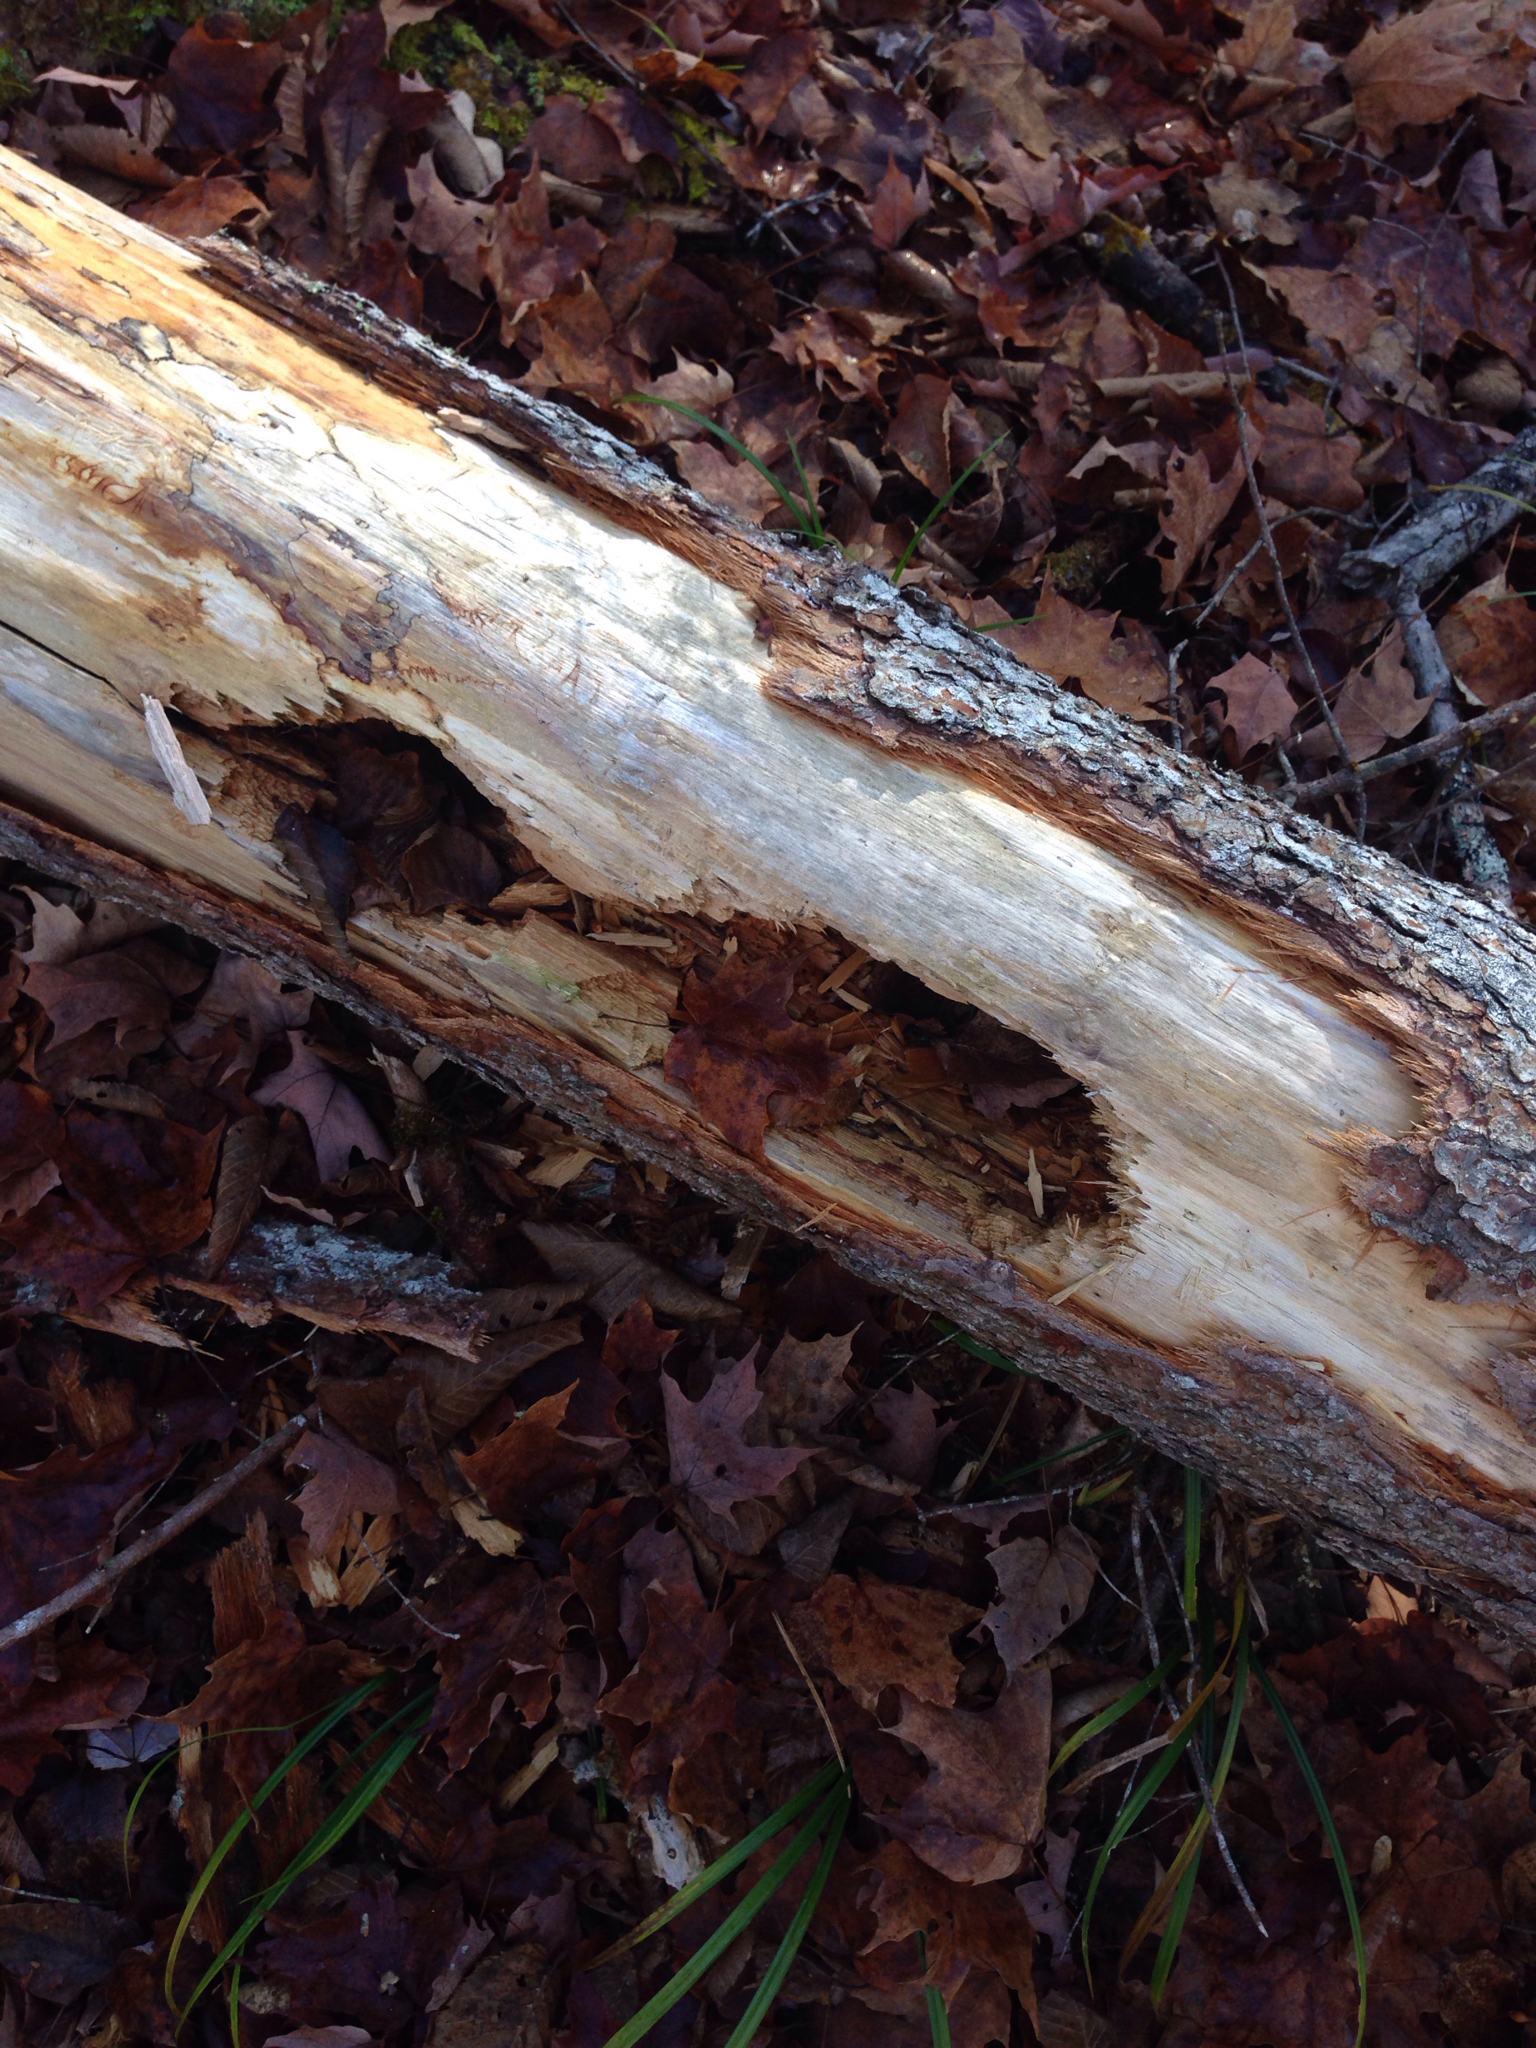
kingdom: Animalia
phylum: Chordata
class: Aves
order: Piciformes
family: Picidae
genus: Dryocopus
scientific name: Dryocopus pileatus
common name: Pileated woodpecker
